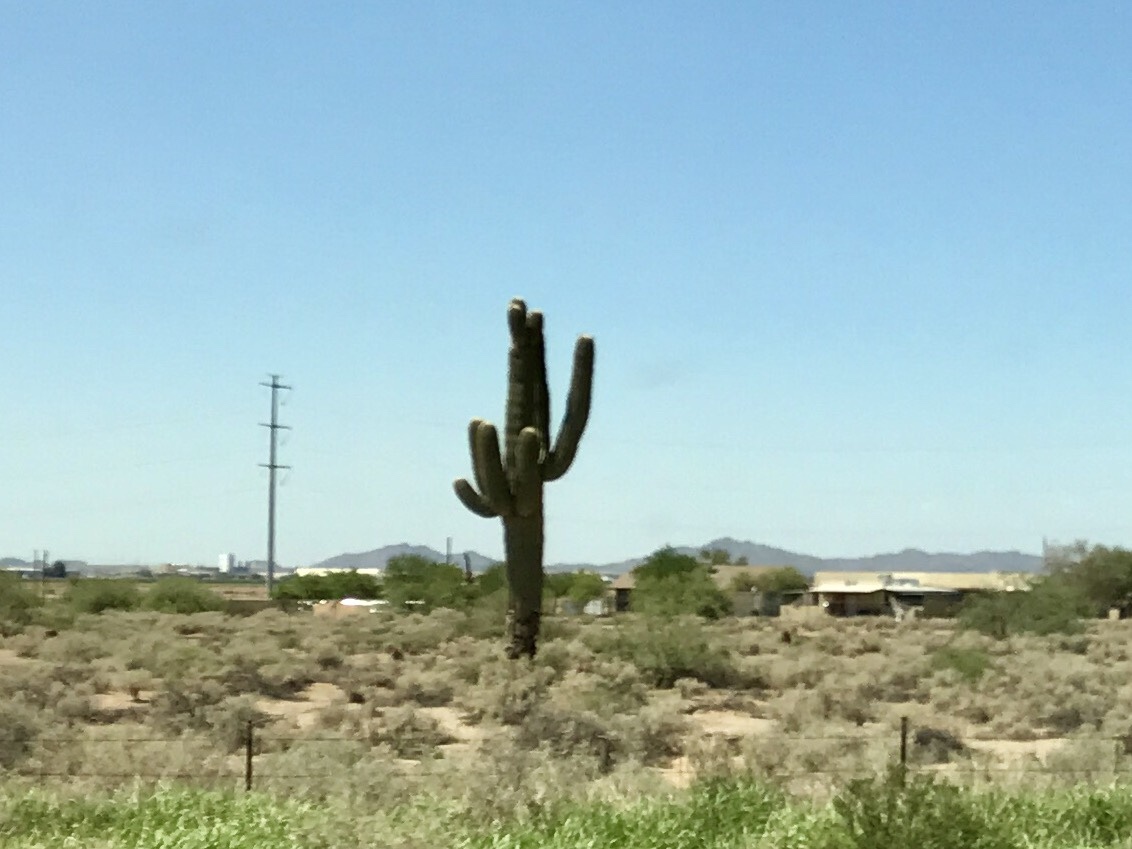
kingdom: Plantae
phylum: Tracheophyta
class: Magnoliopsida
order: Caryophyllales
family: Cactaceae
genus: Carnegiea
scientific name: Carnegiea gigantea
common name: Saguaro
